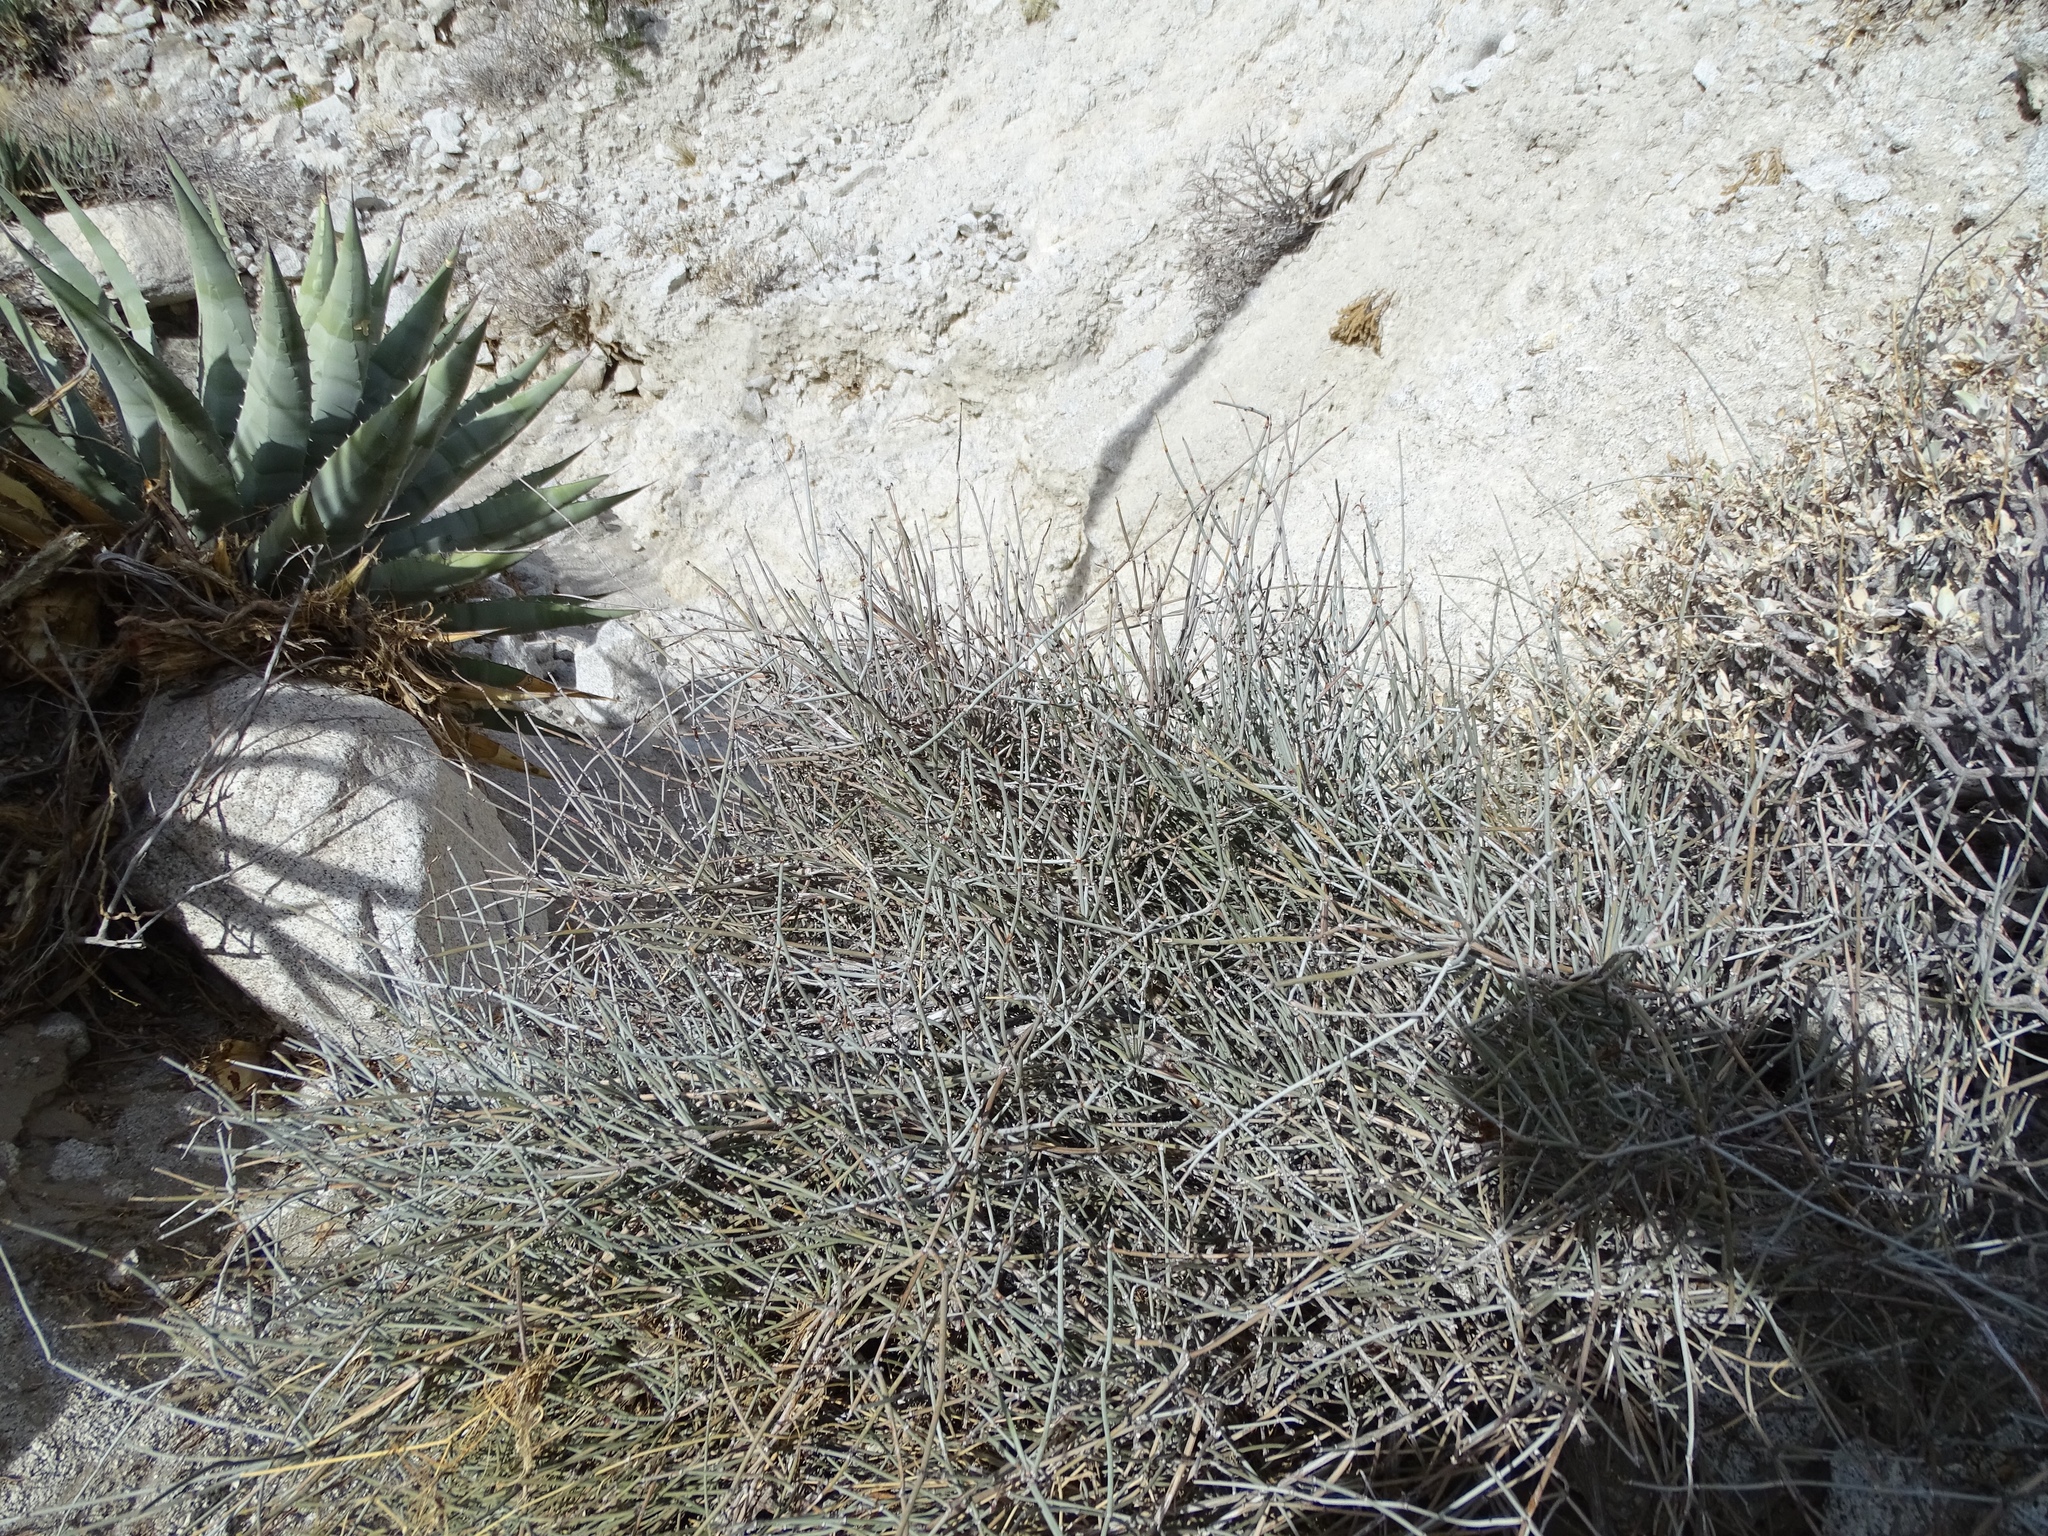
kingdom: Plantae
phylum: Tracheophyta
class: Gnetopsida
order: Ephedrales
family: Ephedraceae
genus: Ephedra
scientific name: Ephedra aspera
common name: Boundary ephedra
